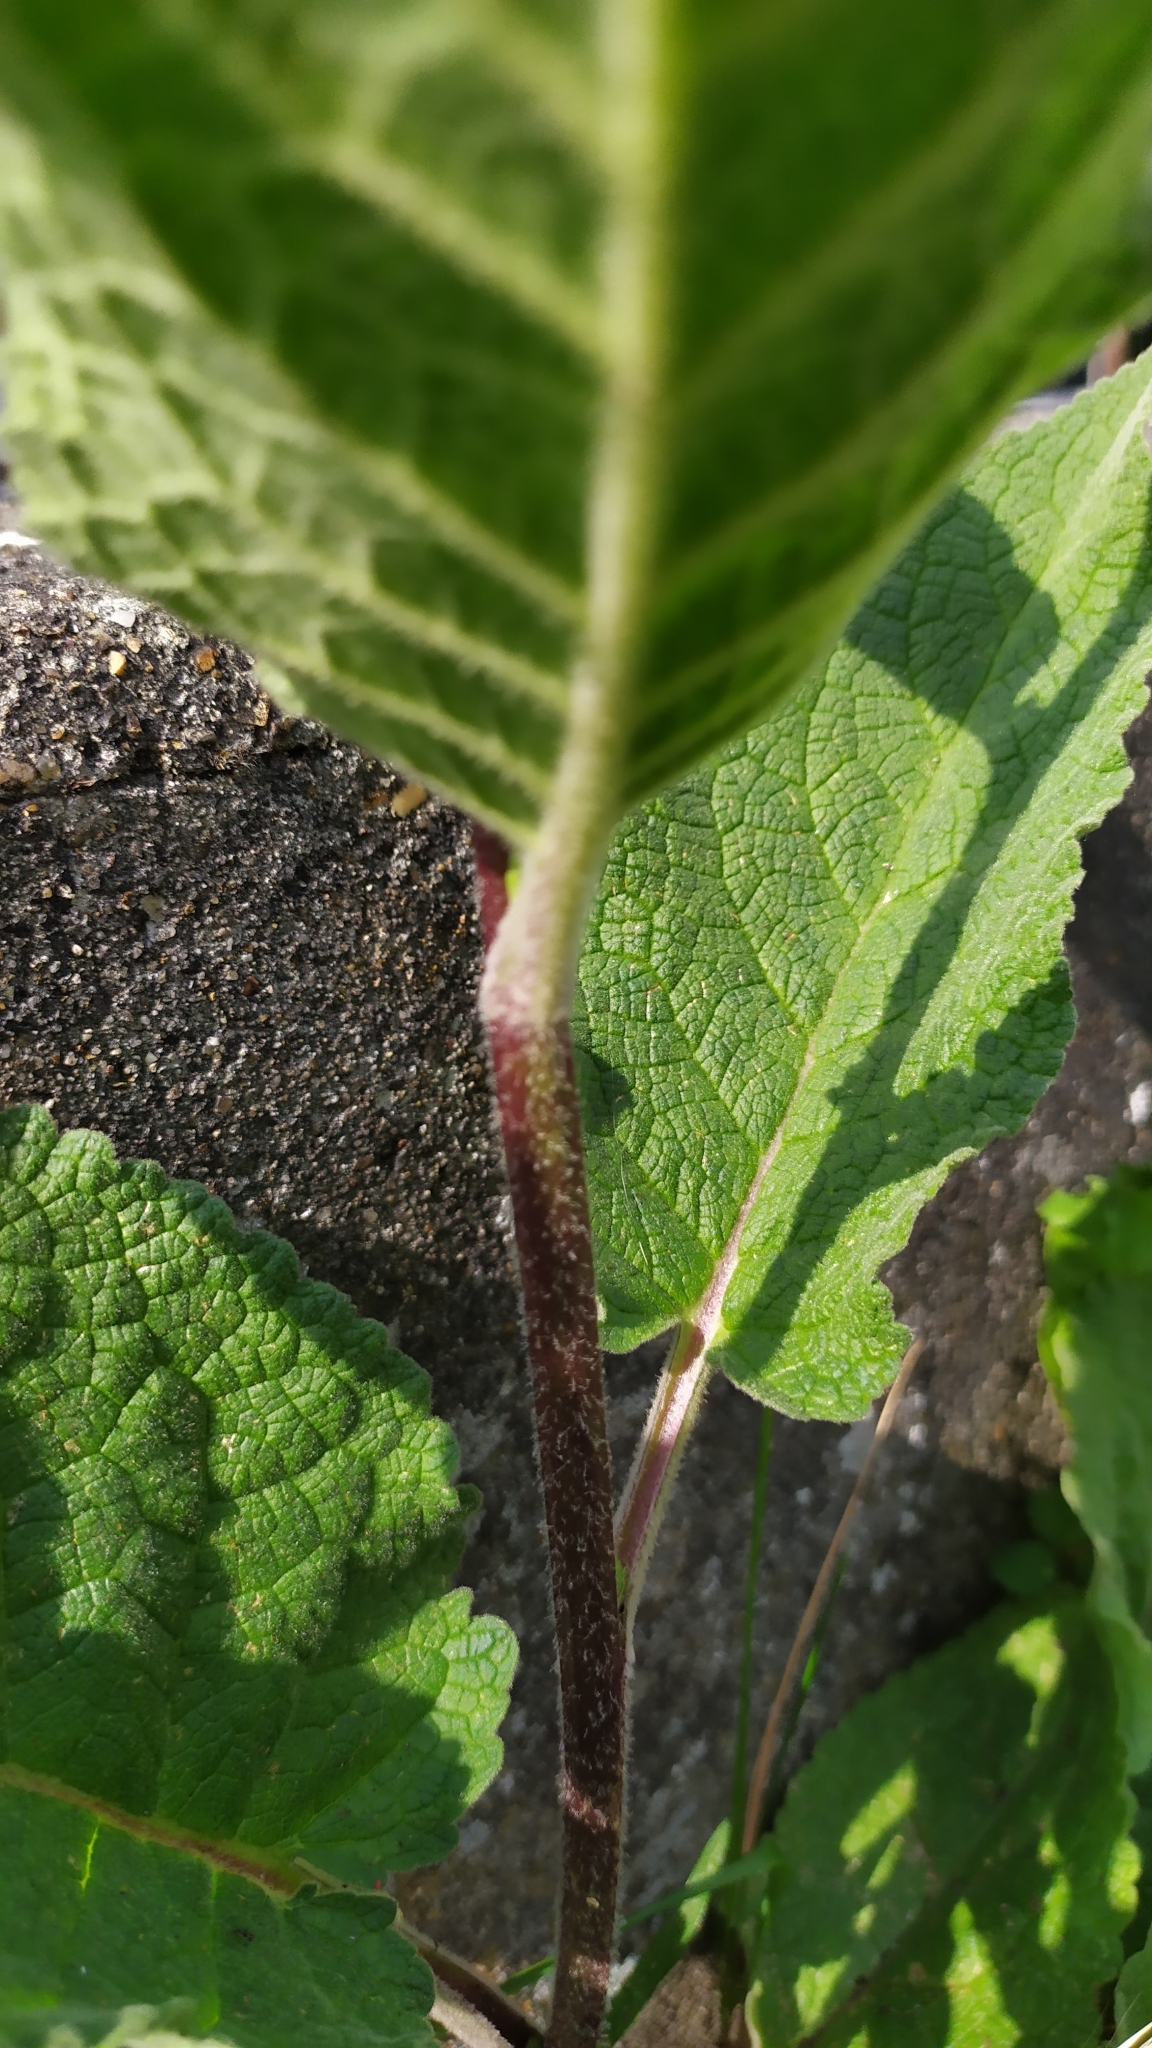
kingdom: Plantae
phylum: Tracheophyta
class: Magnoliopsida
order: Lamiales
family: Scrophulariaceae
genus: Verbascum
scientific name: Verbascum nigrum
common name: Dark mullein
